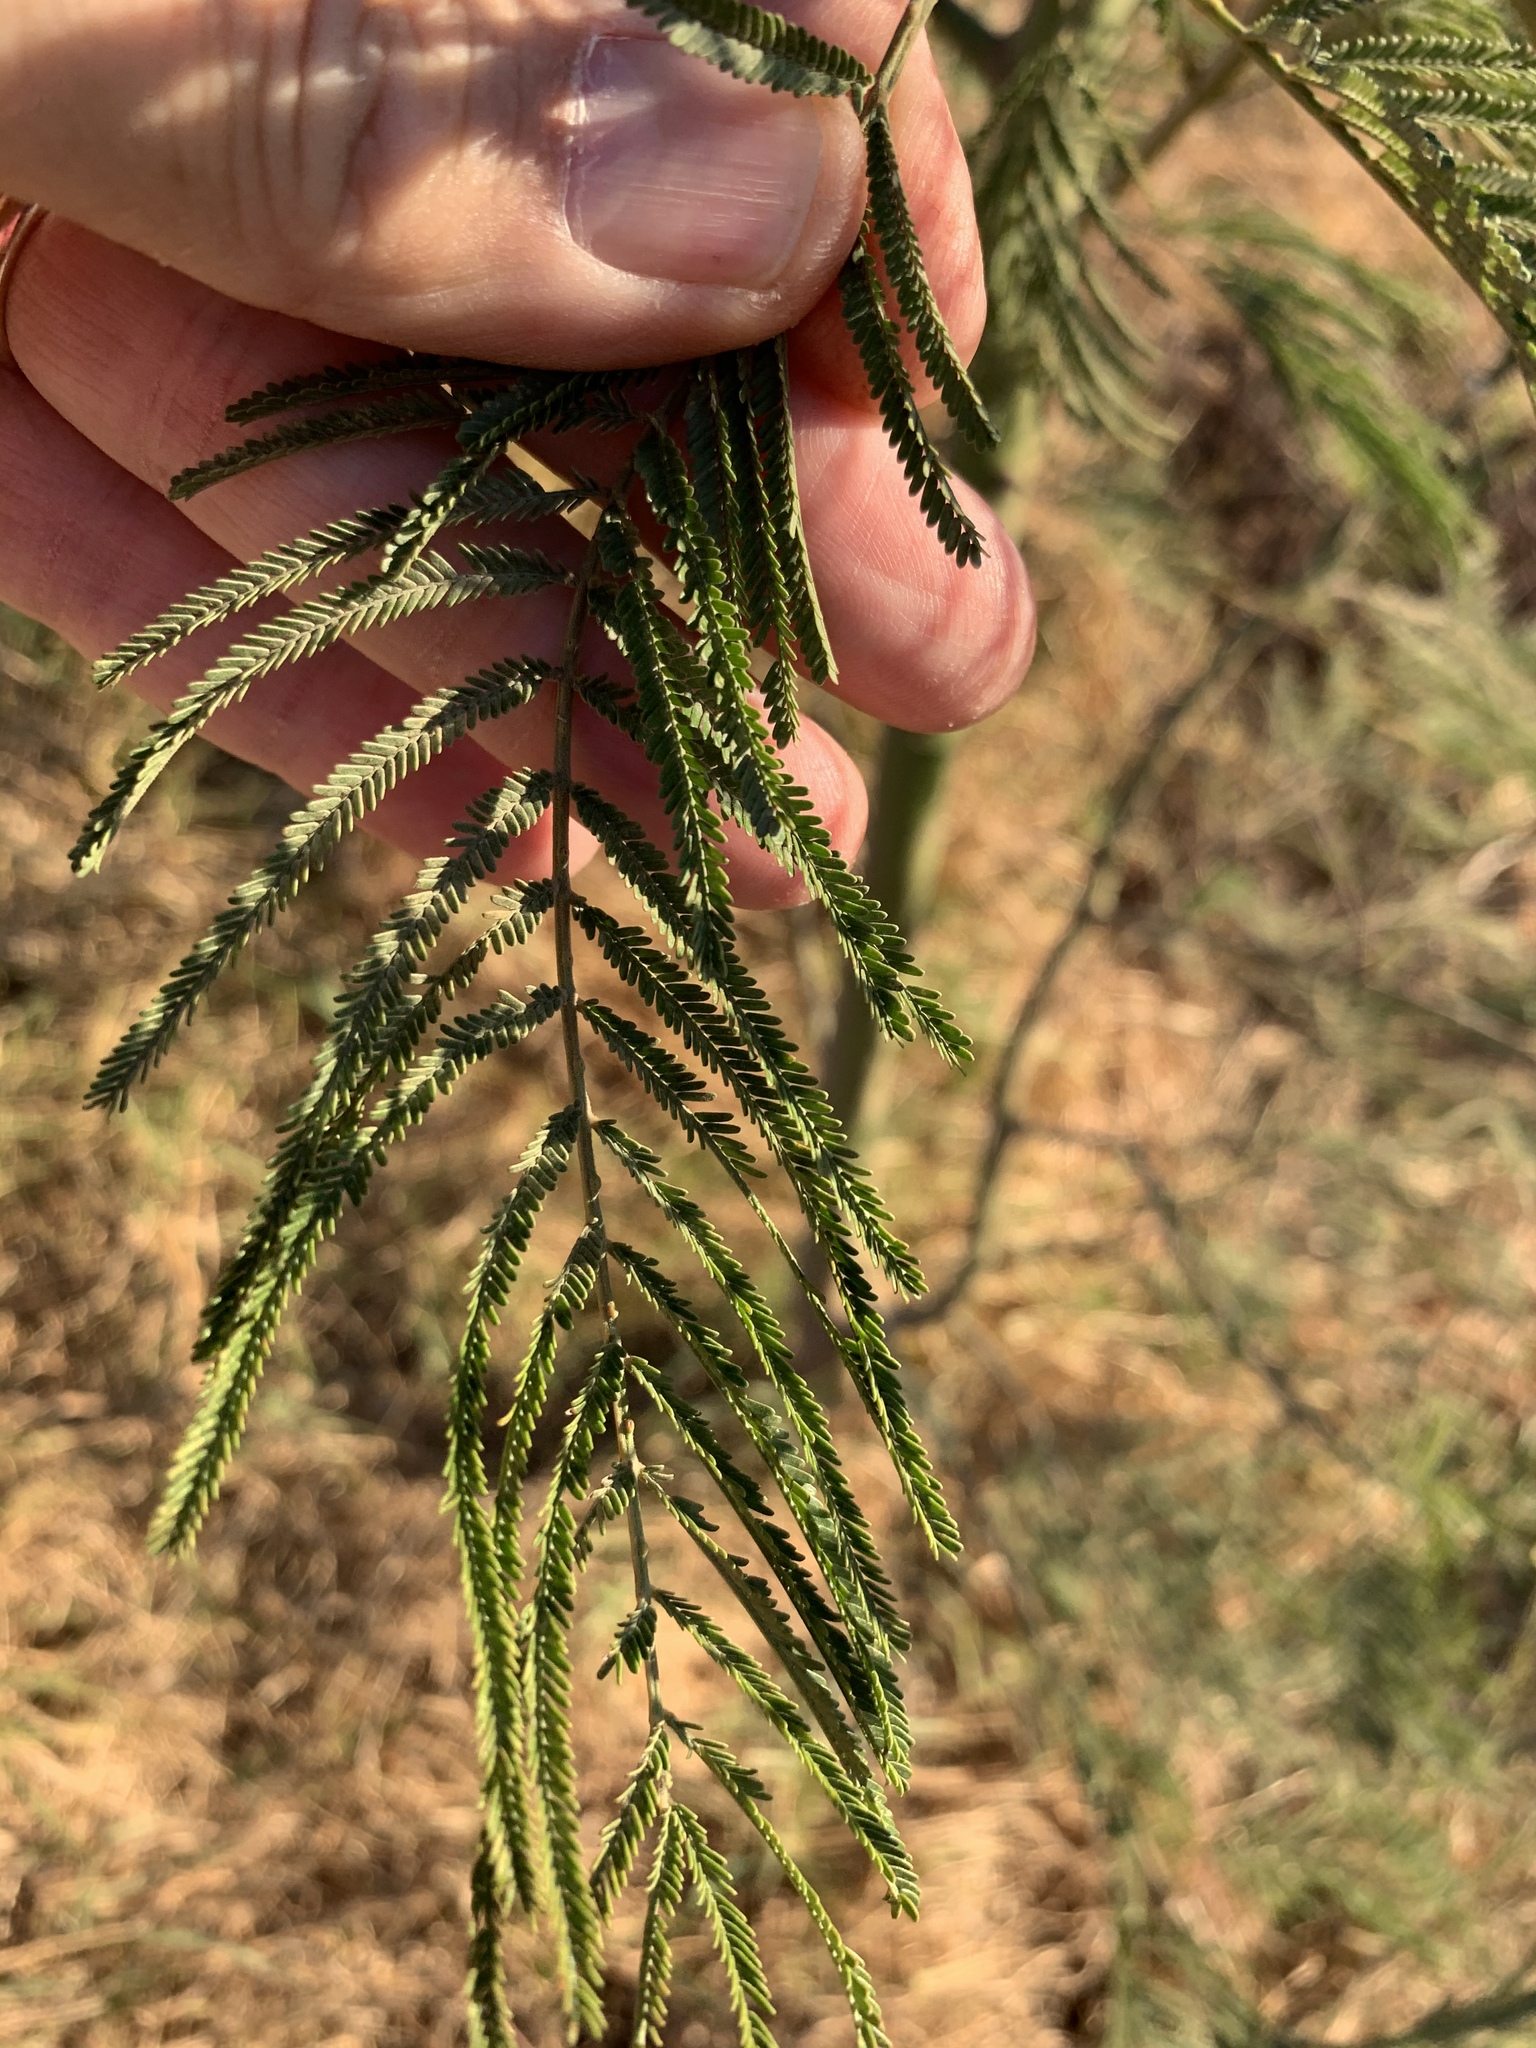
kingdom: Plantae
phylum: Tracheophyta
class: Magnoliopsida
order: Fabales
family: Fabaceae
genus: Acacia
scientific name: Acacia mearnsii
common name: Black wattle
